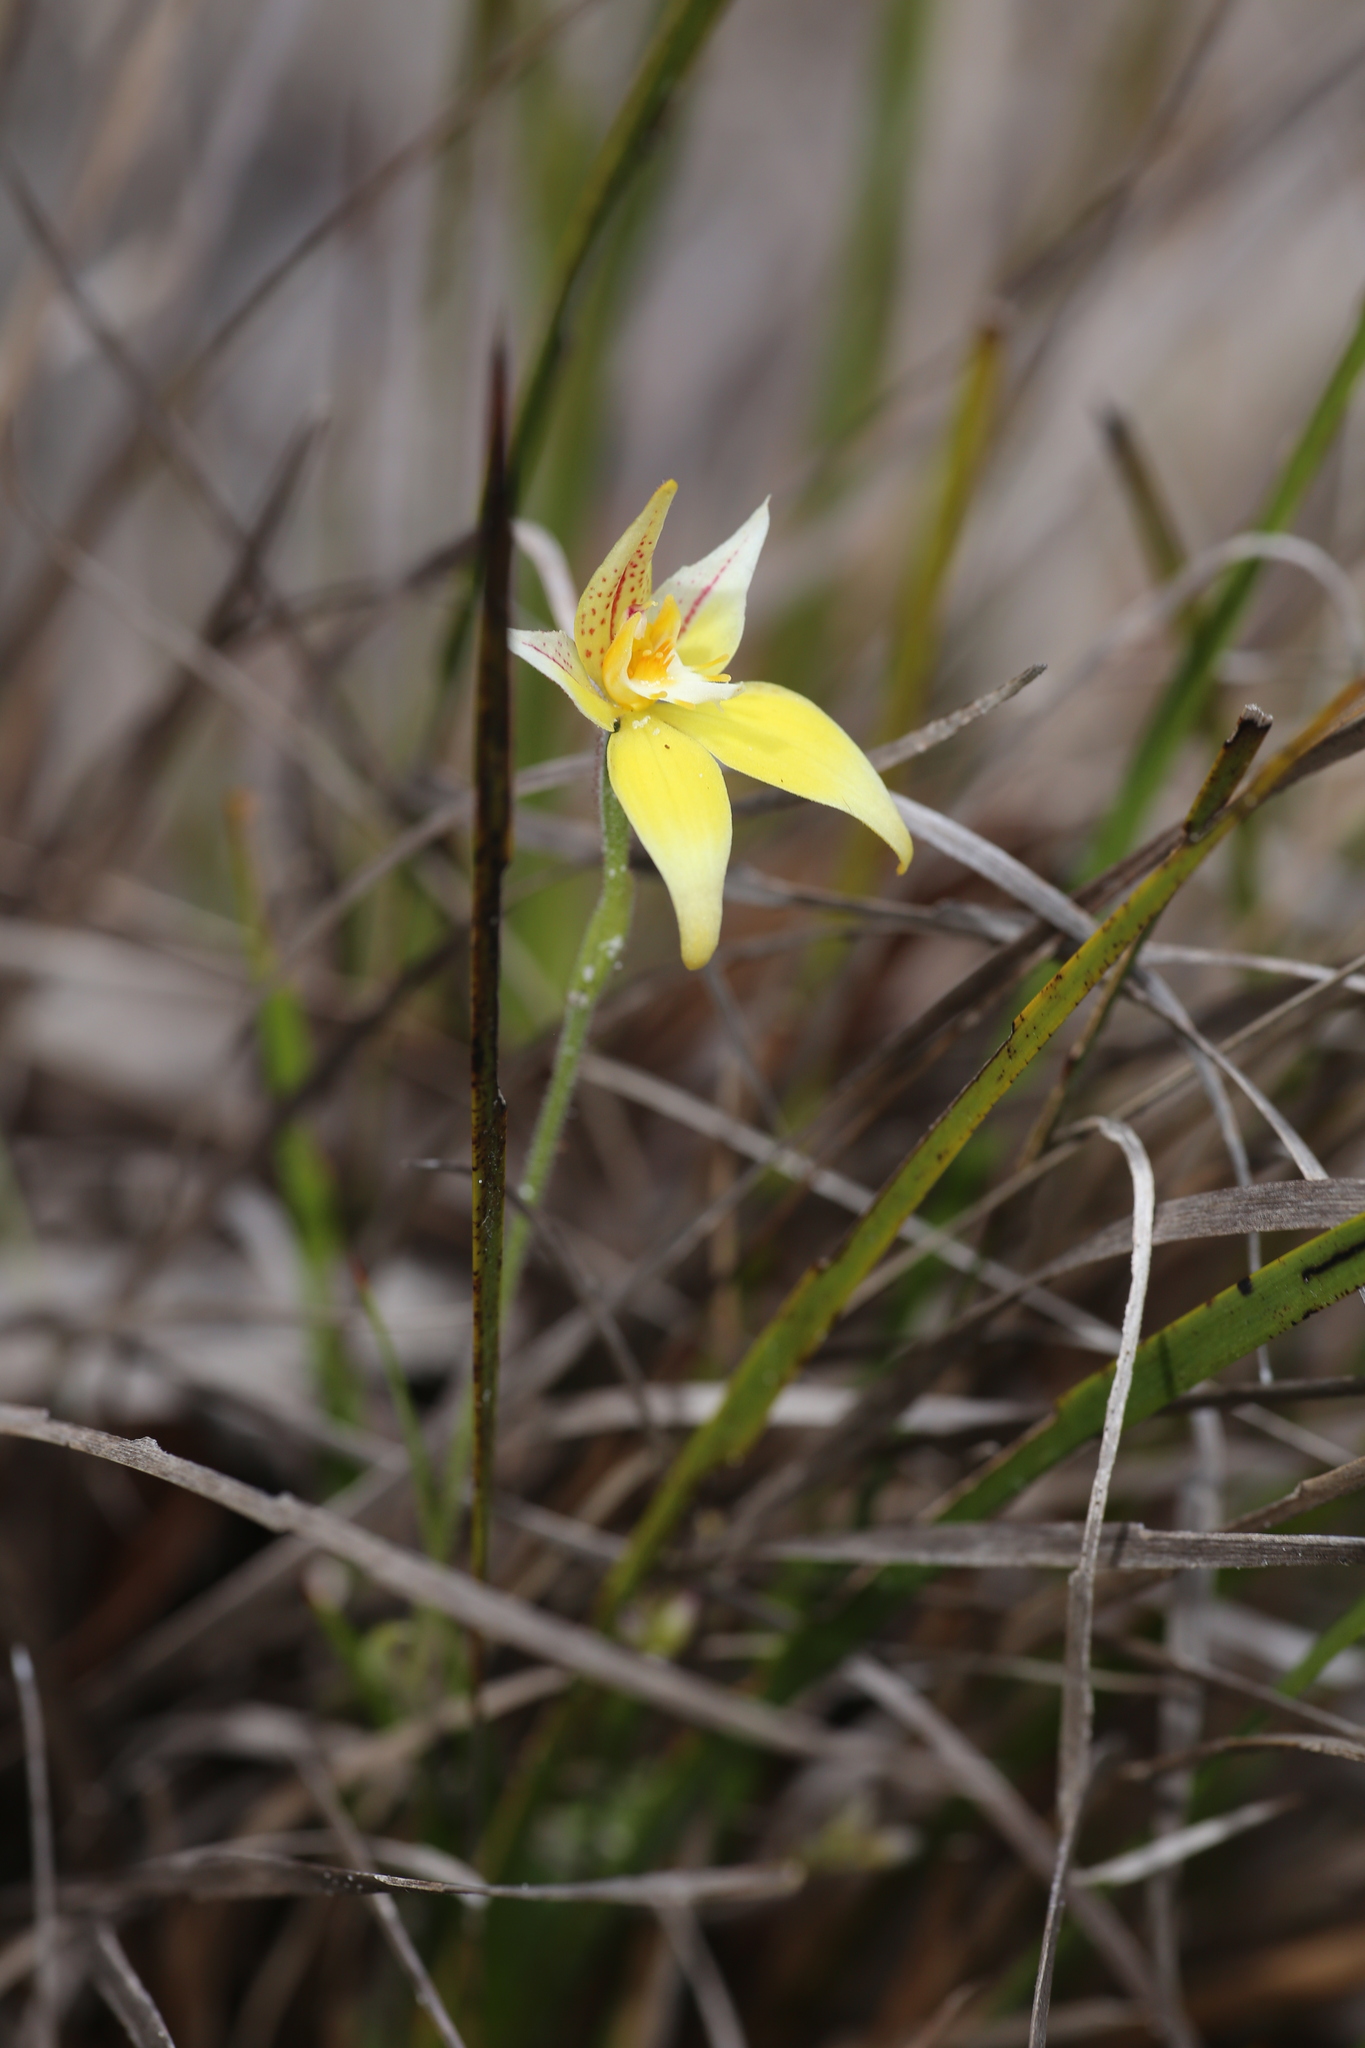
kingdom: Plantae
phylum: Tracheophyta
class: Liliopsida
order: Asparagales
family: Orchidaceae
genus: Caladenia
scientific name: Caladenia flava
